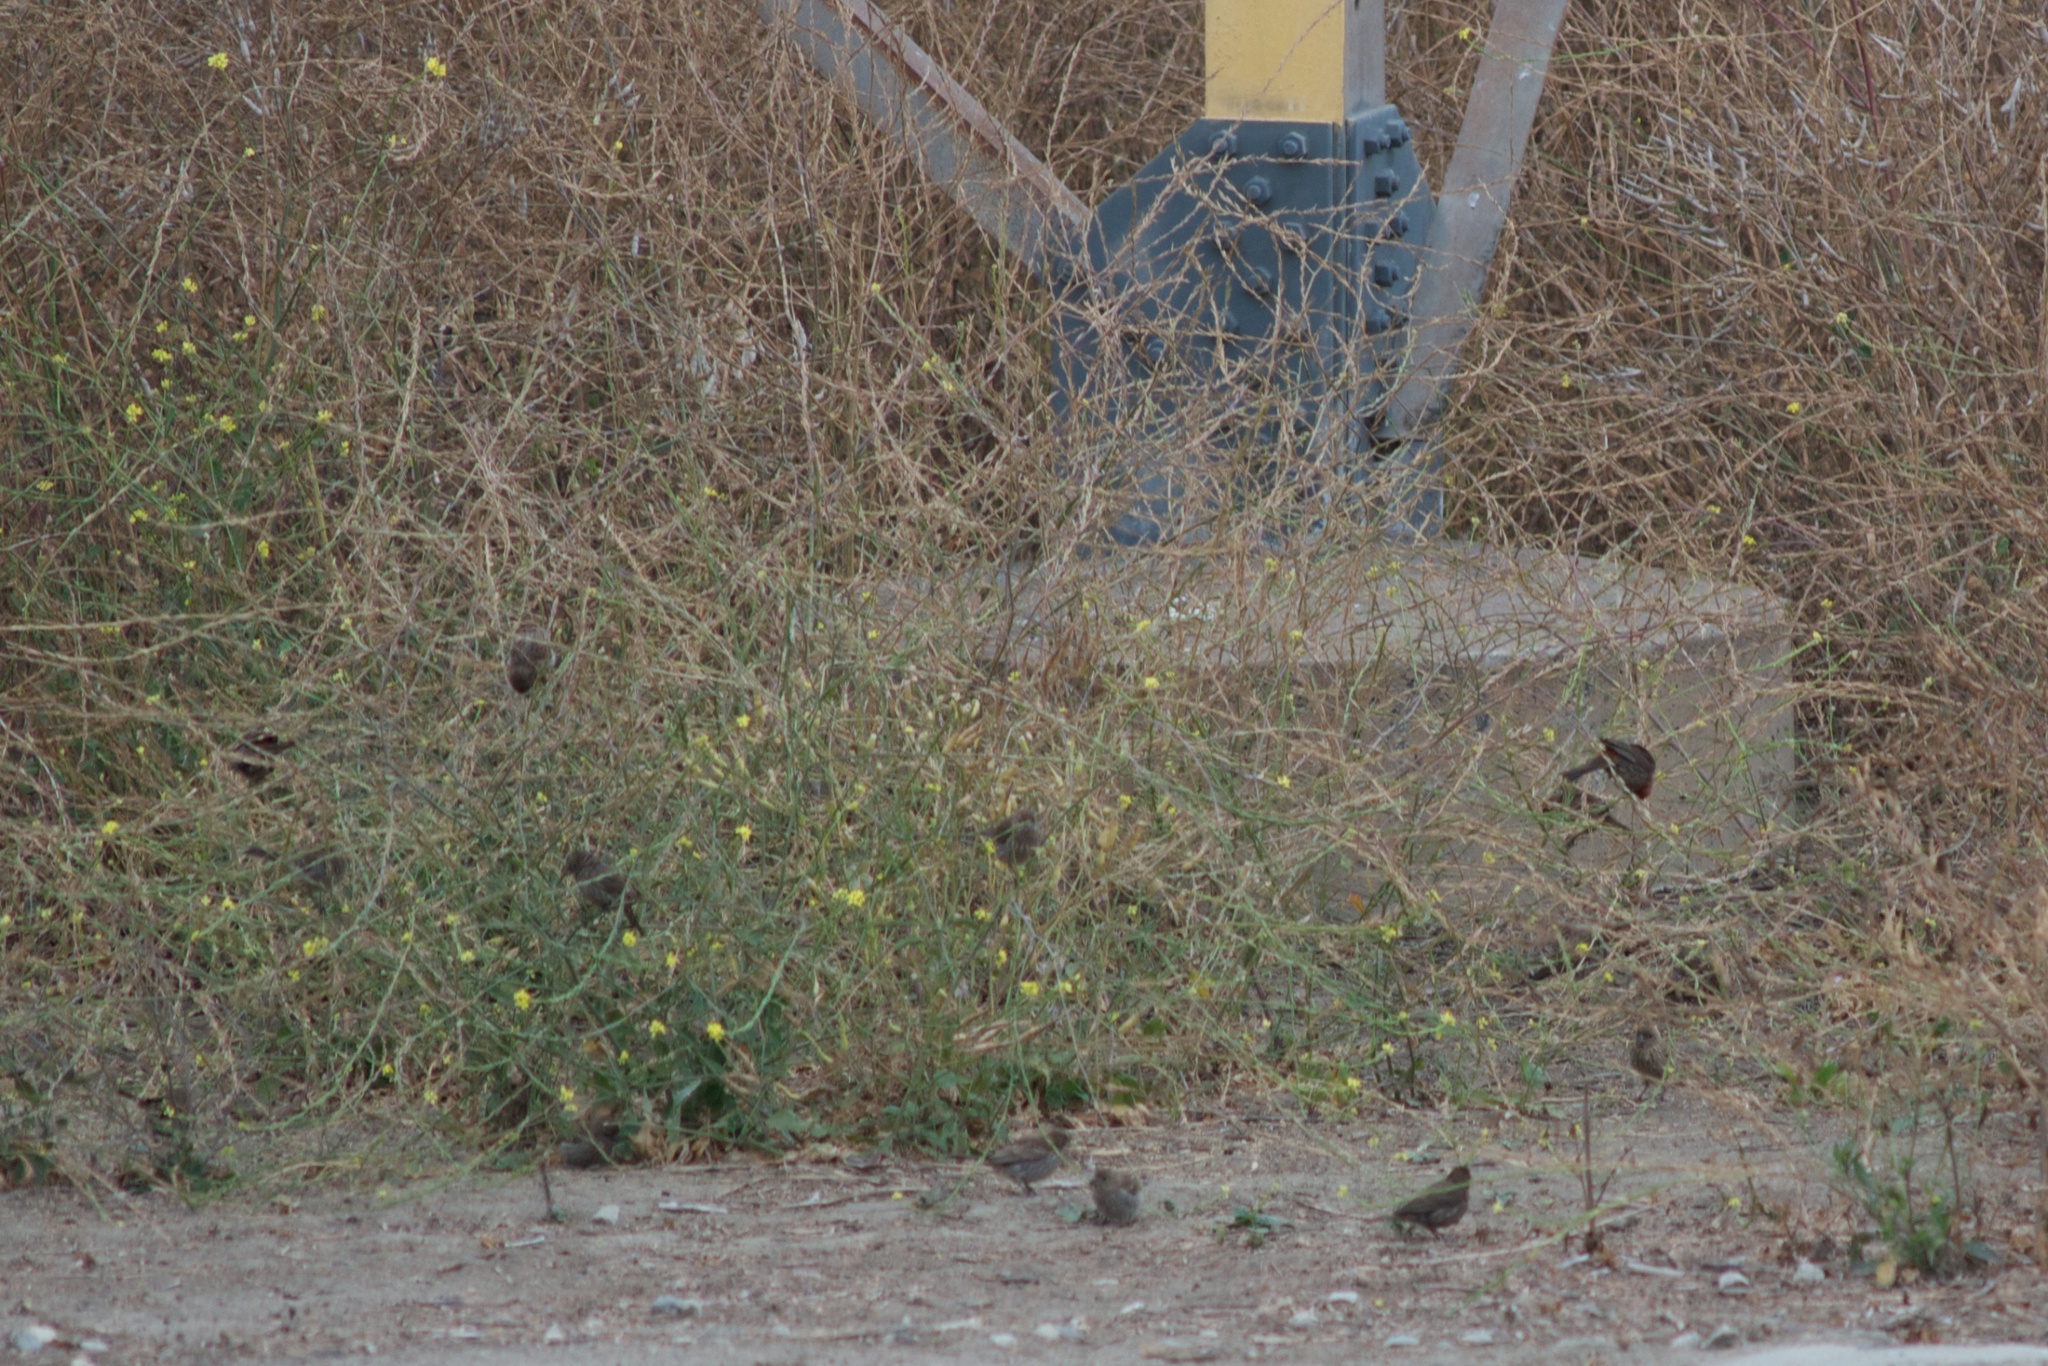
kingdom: Animalia
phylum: Chordata
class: Aves
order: Passeriformes
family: Fringillidae
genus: Haemorhous
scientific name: Haemorhous mexicanus
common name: House finch
